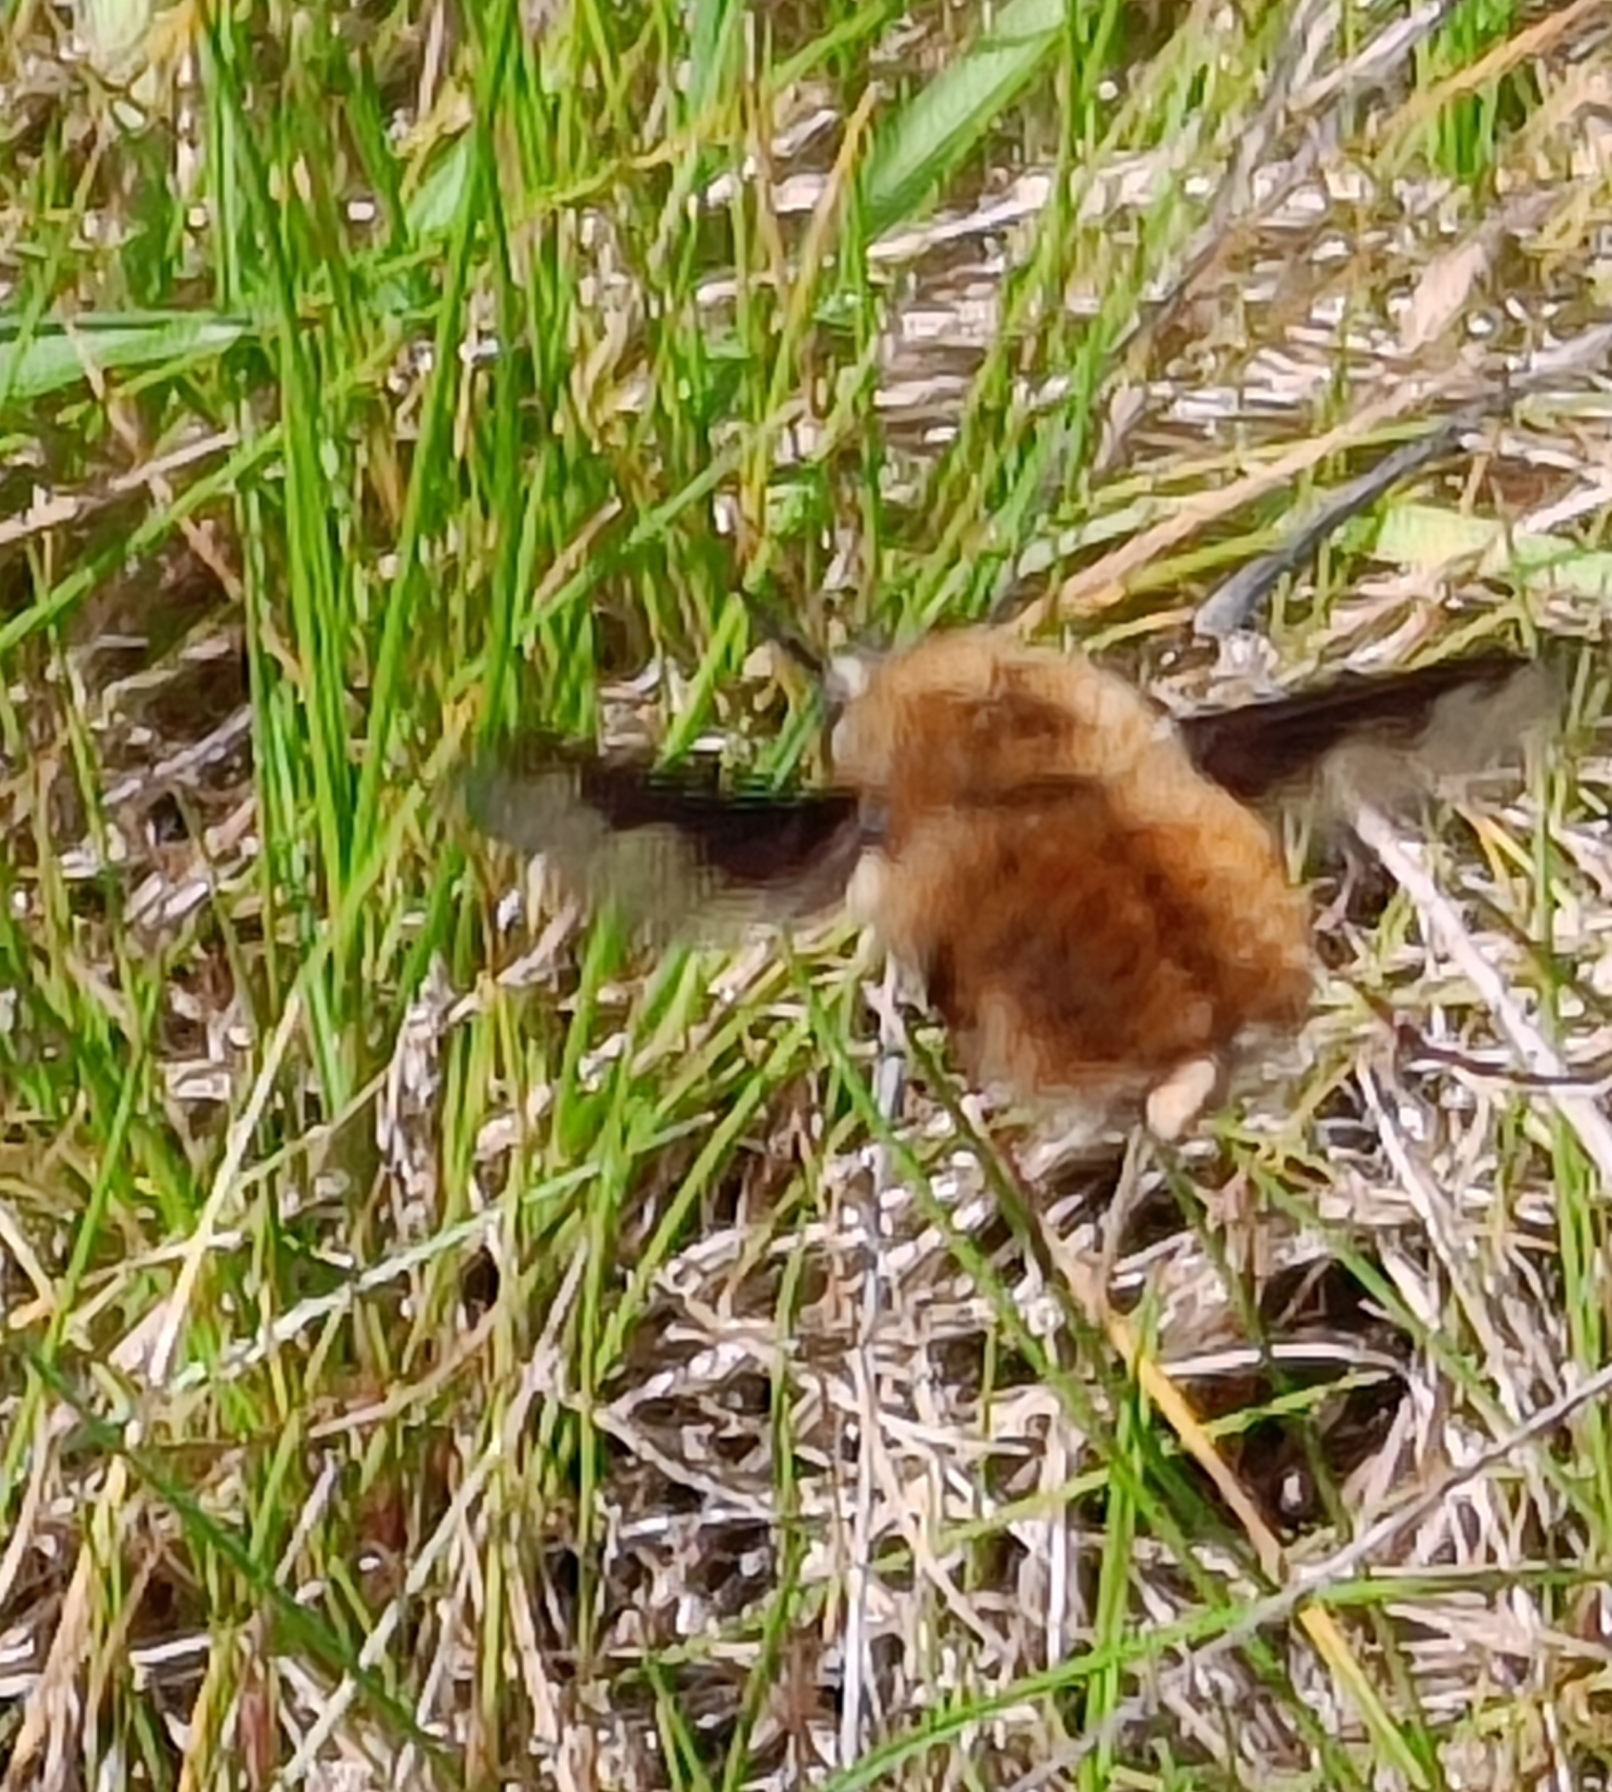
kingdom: Animalia
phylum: Arthropoda
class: Insecta
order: Diptera
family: Bombyliidae
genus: Bombylius
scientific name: Bombylius major
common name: Bee fly
